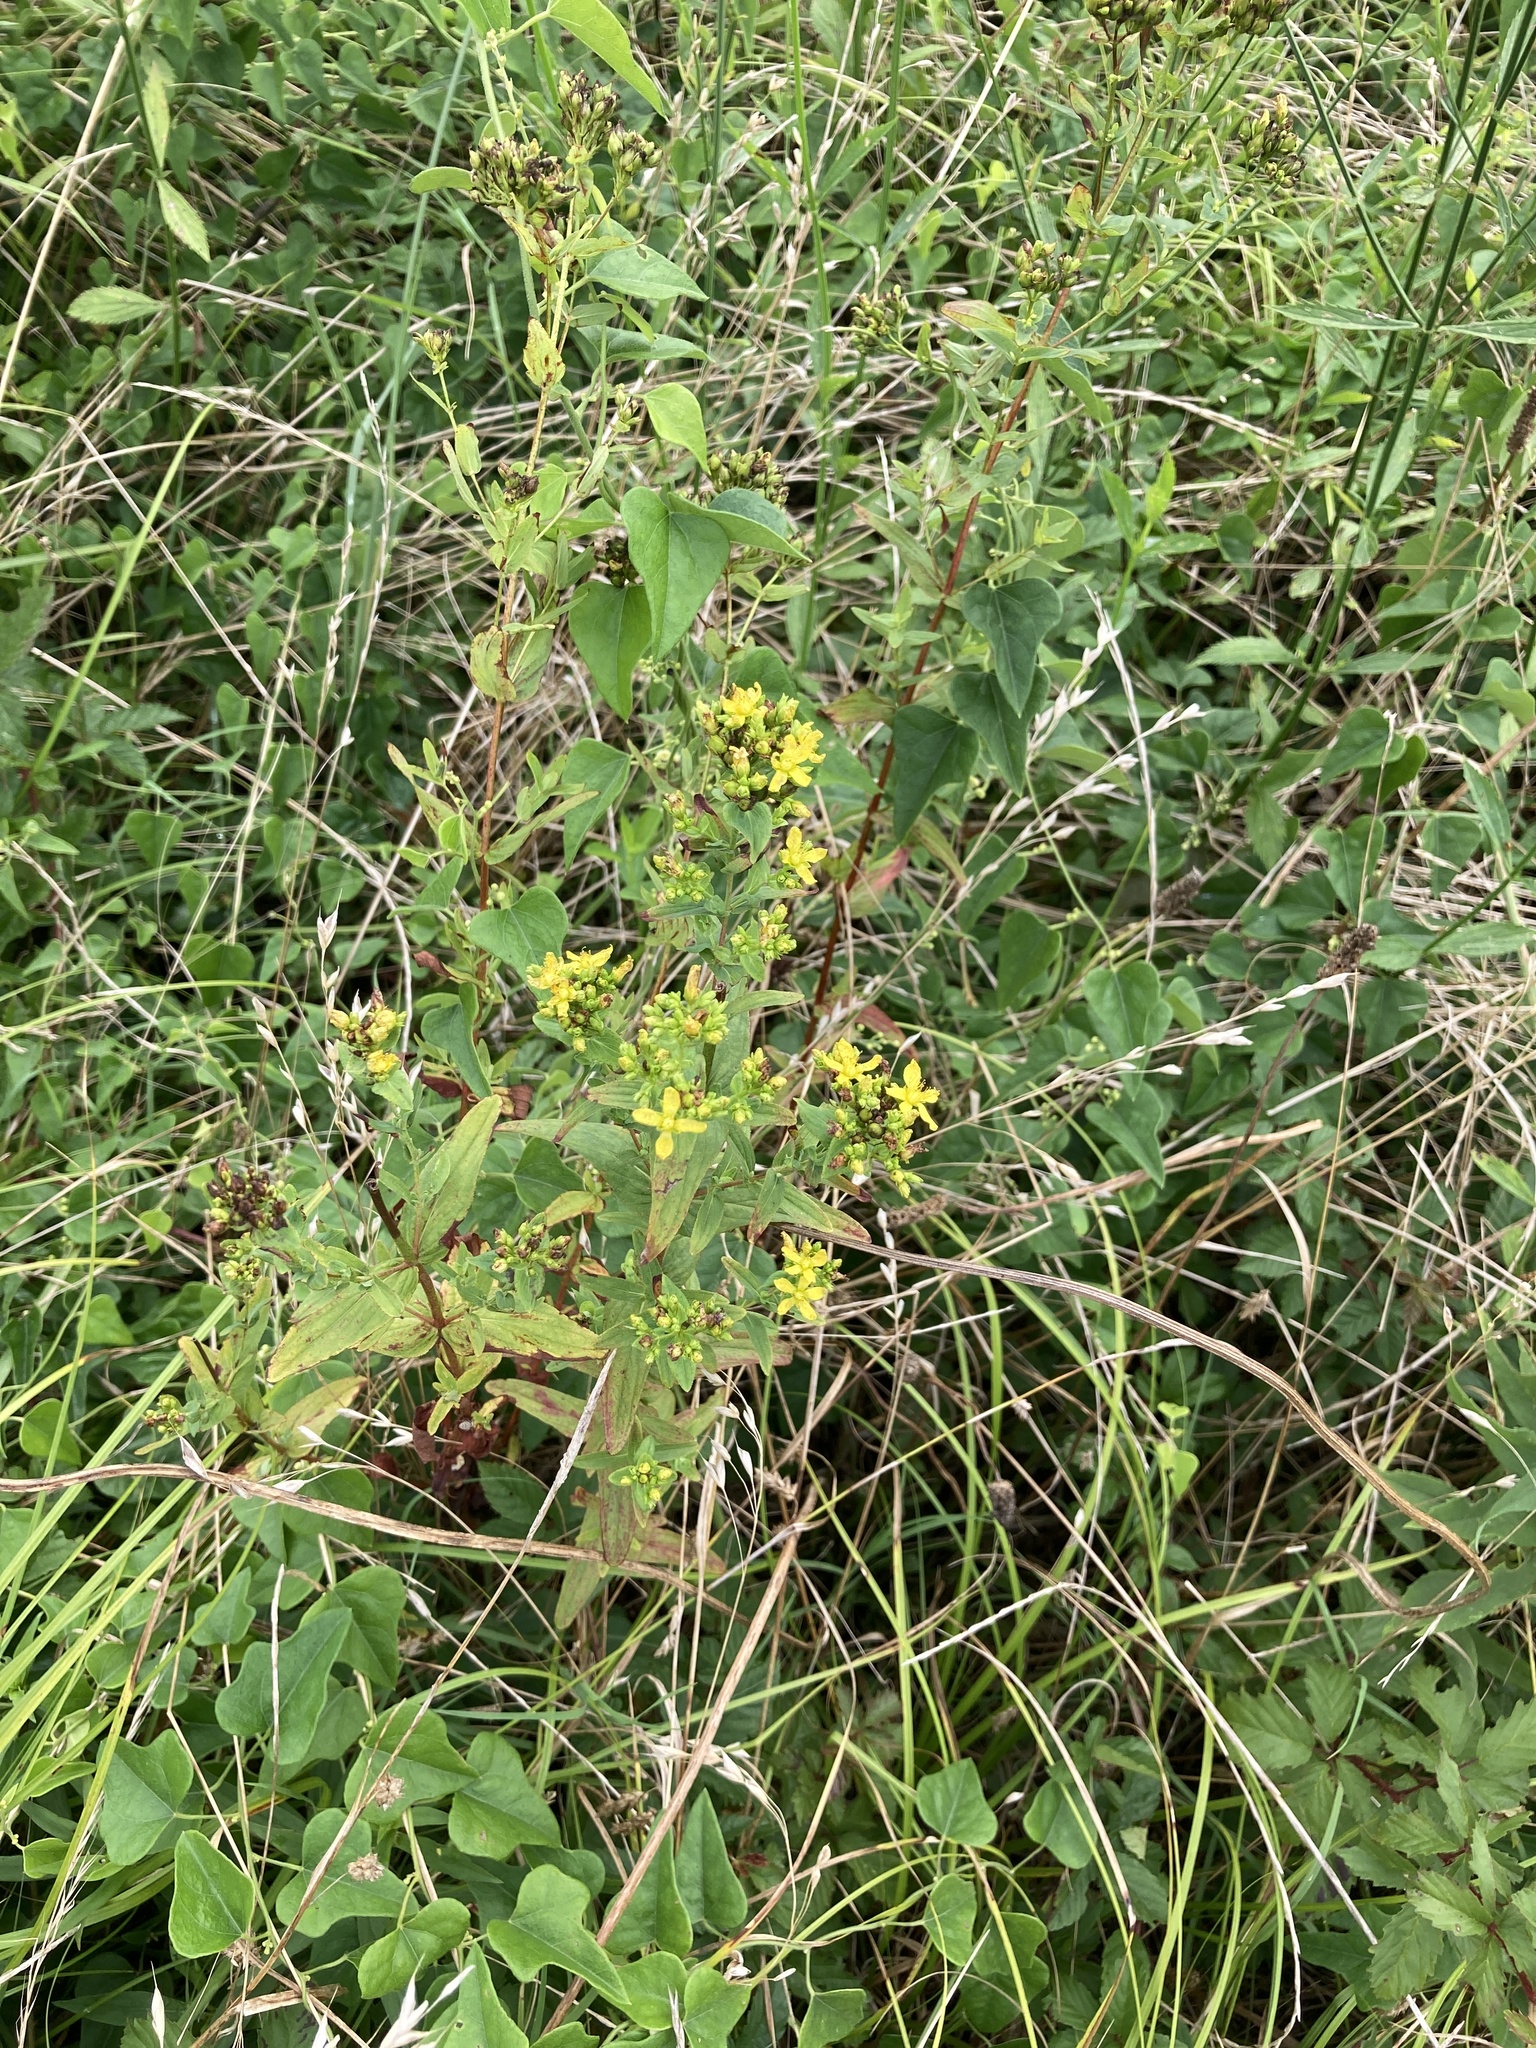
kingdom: Plantae
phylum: Tracheophyta
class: Magnoliopsida
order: Malpighiales
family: Hypericaceae
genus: Hypericum
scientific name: Hypericum punctatum
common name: Spotted st. john's-wort
